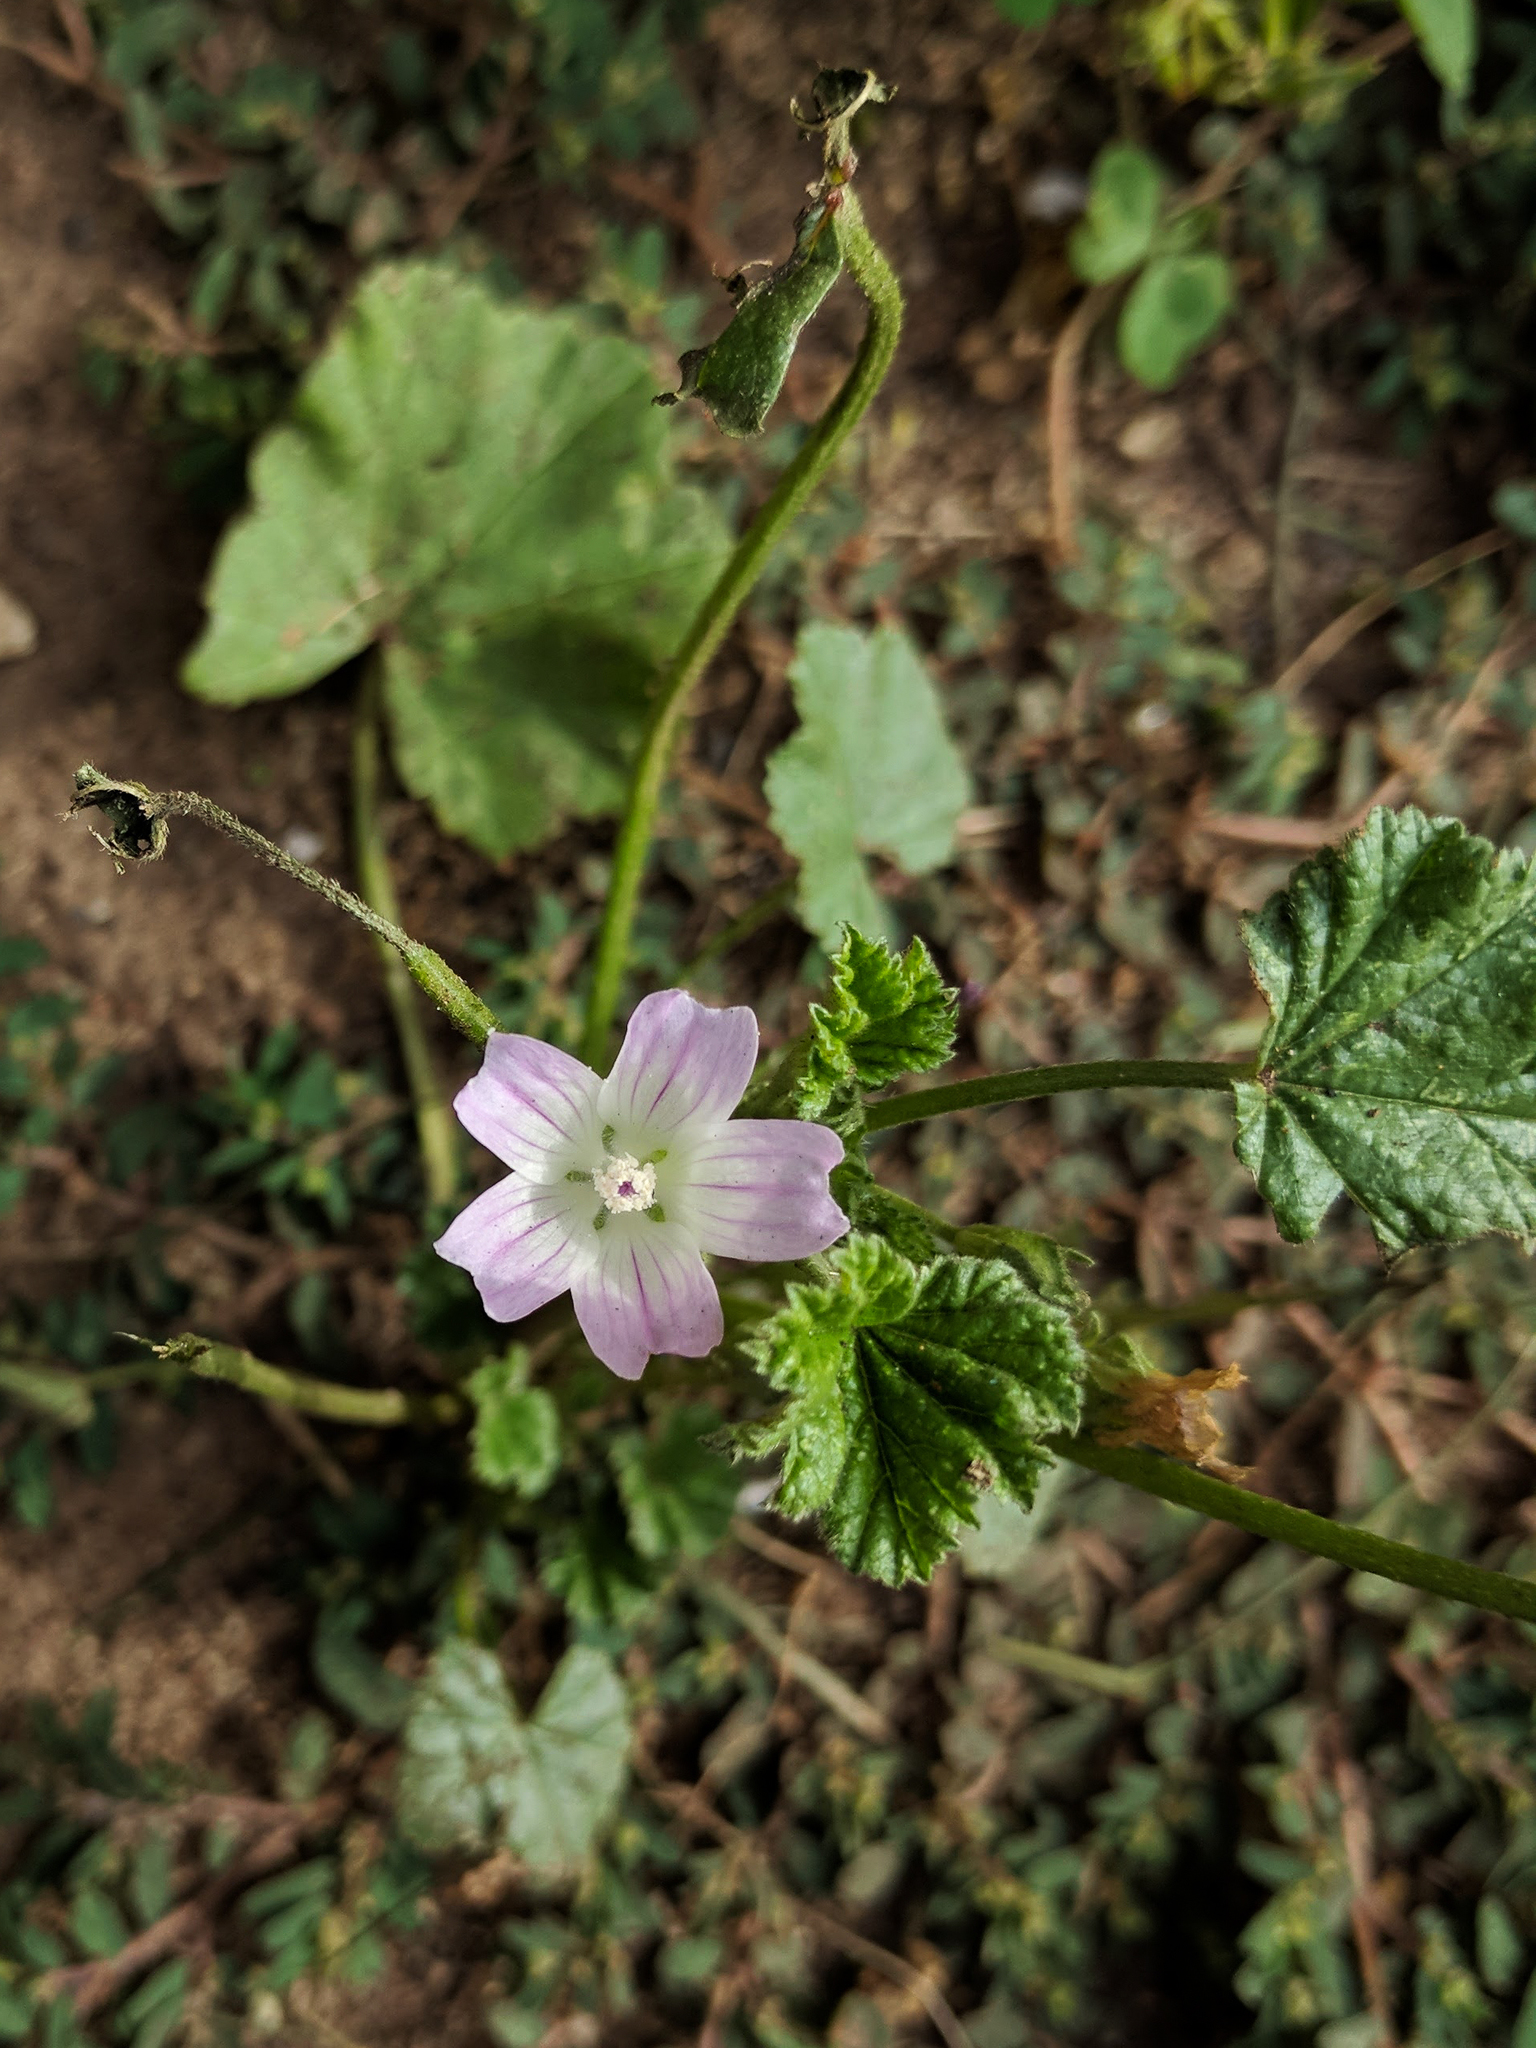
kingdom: Plantae
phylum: Tracheophyta
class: Magnoliopsida
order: Malvales
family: Malvaceae
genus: Malva
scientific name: Malva neglecta
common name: Common mallow
